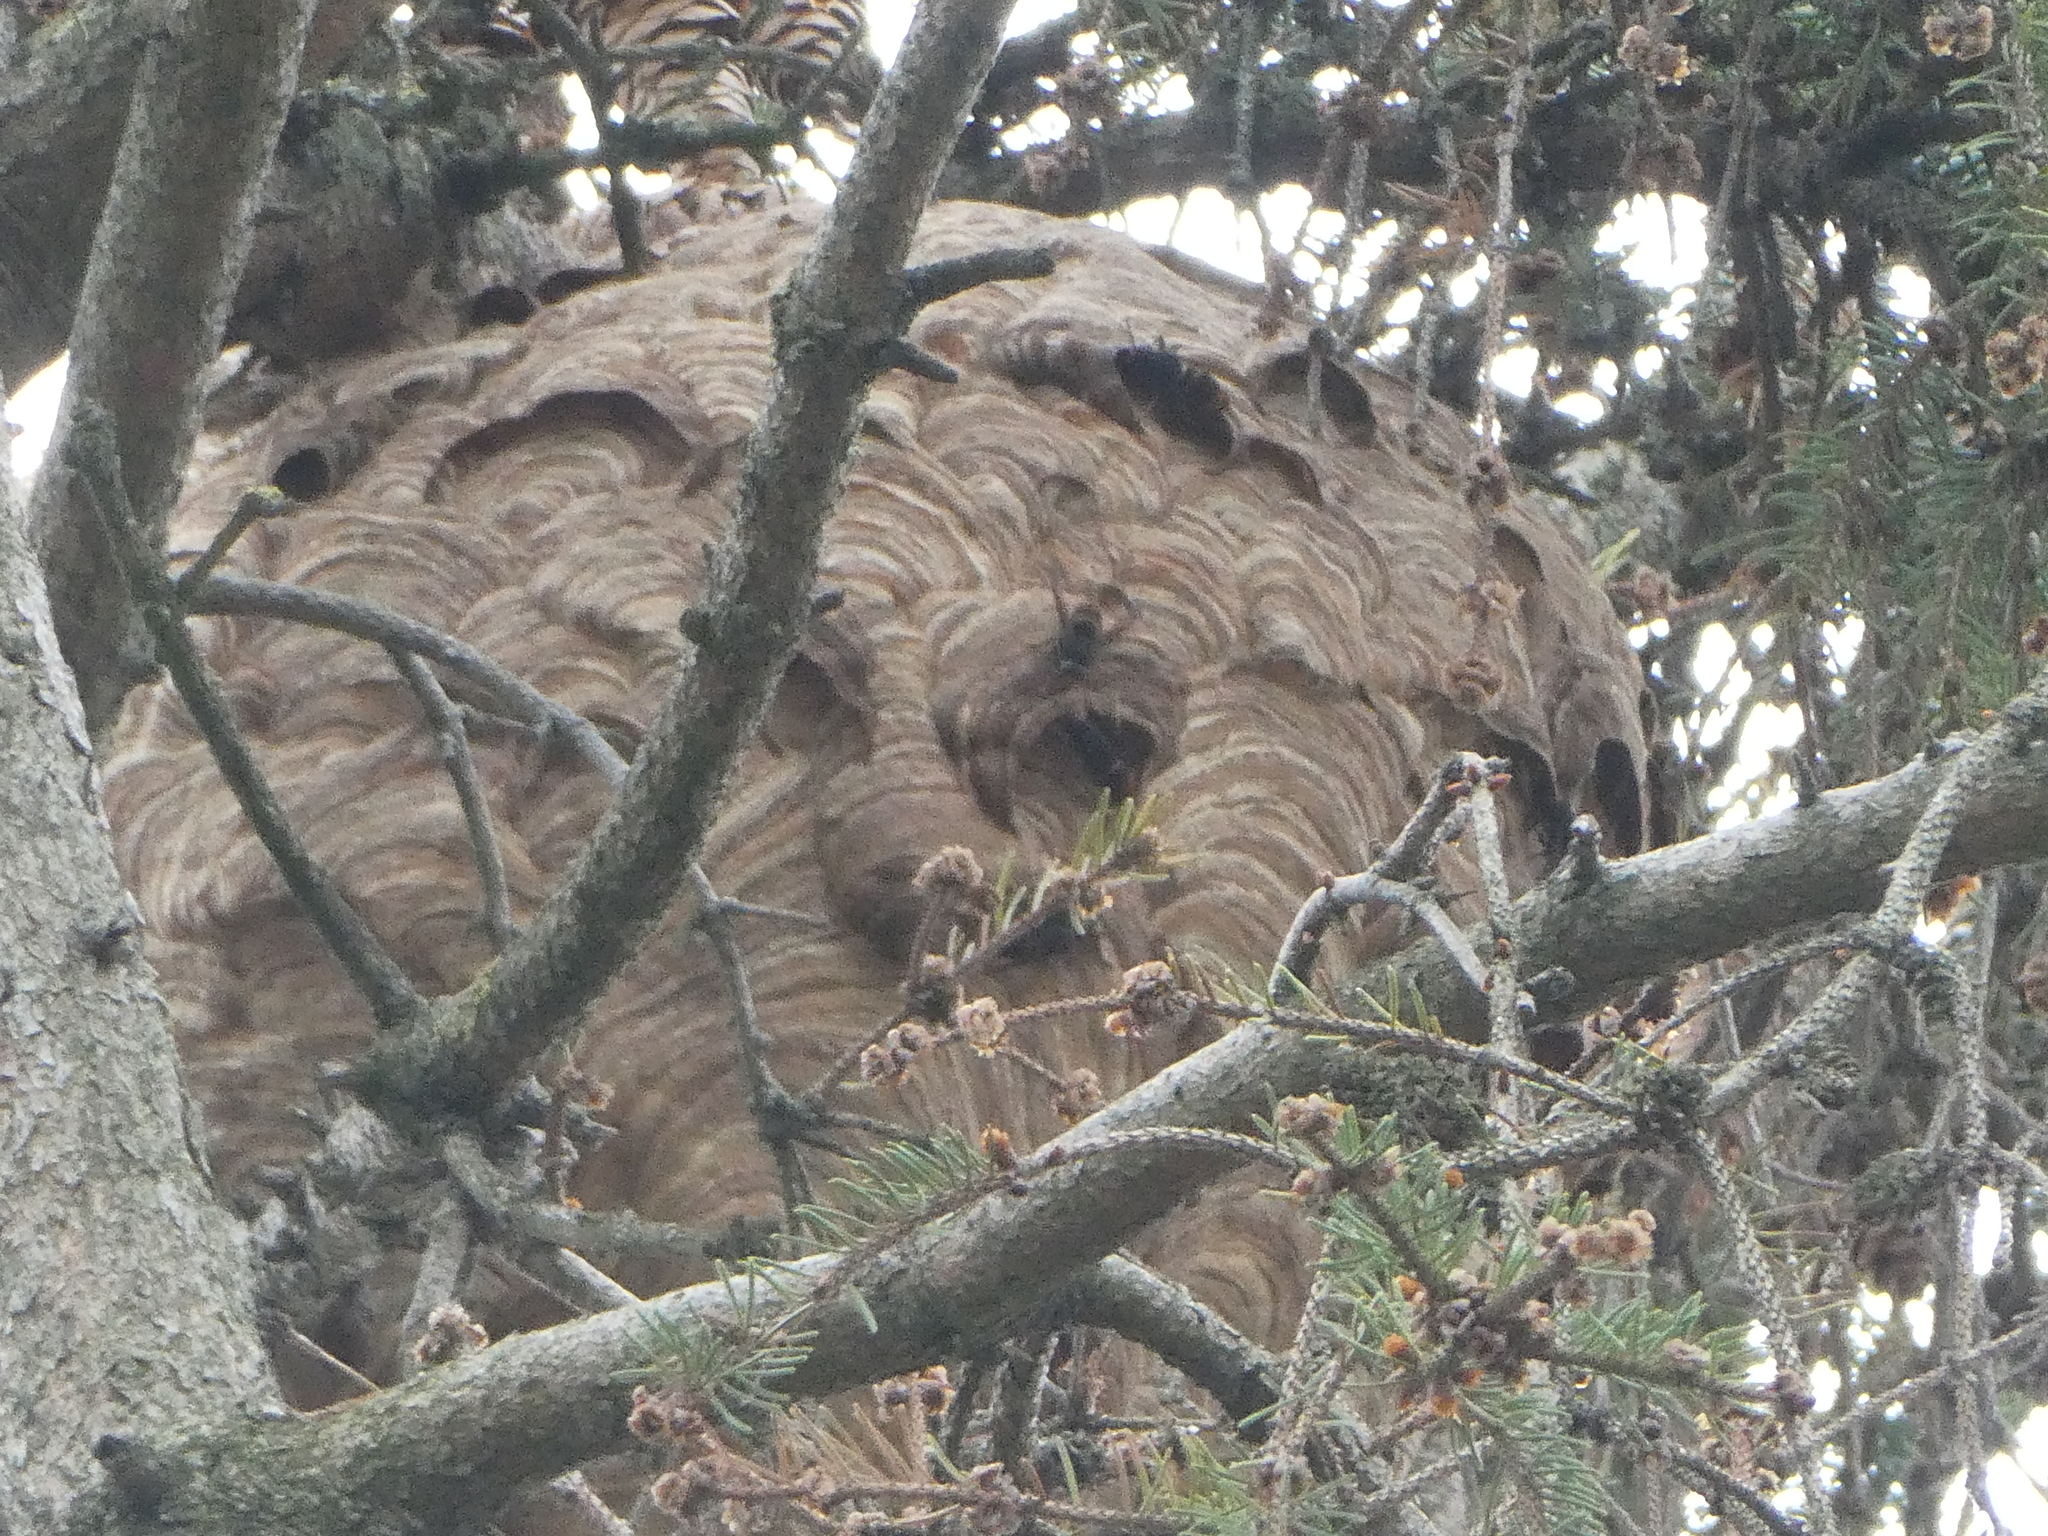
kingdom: Animalia
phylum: Arthropoda
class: Insecta
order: Hymenoptera
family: Vespidae
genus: Vespa
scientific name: Vespa velutina
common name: Asian hornet
